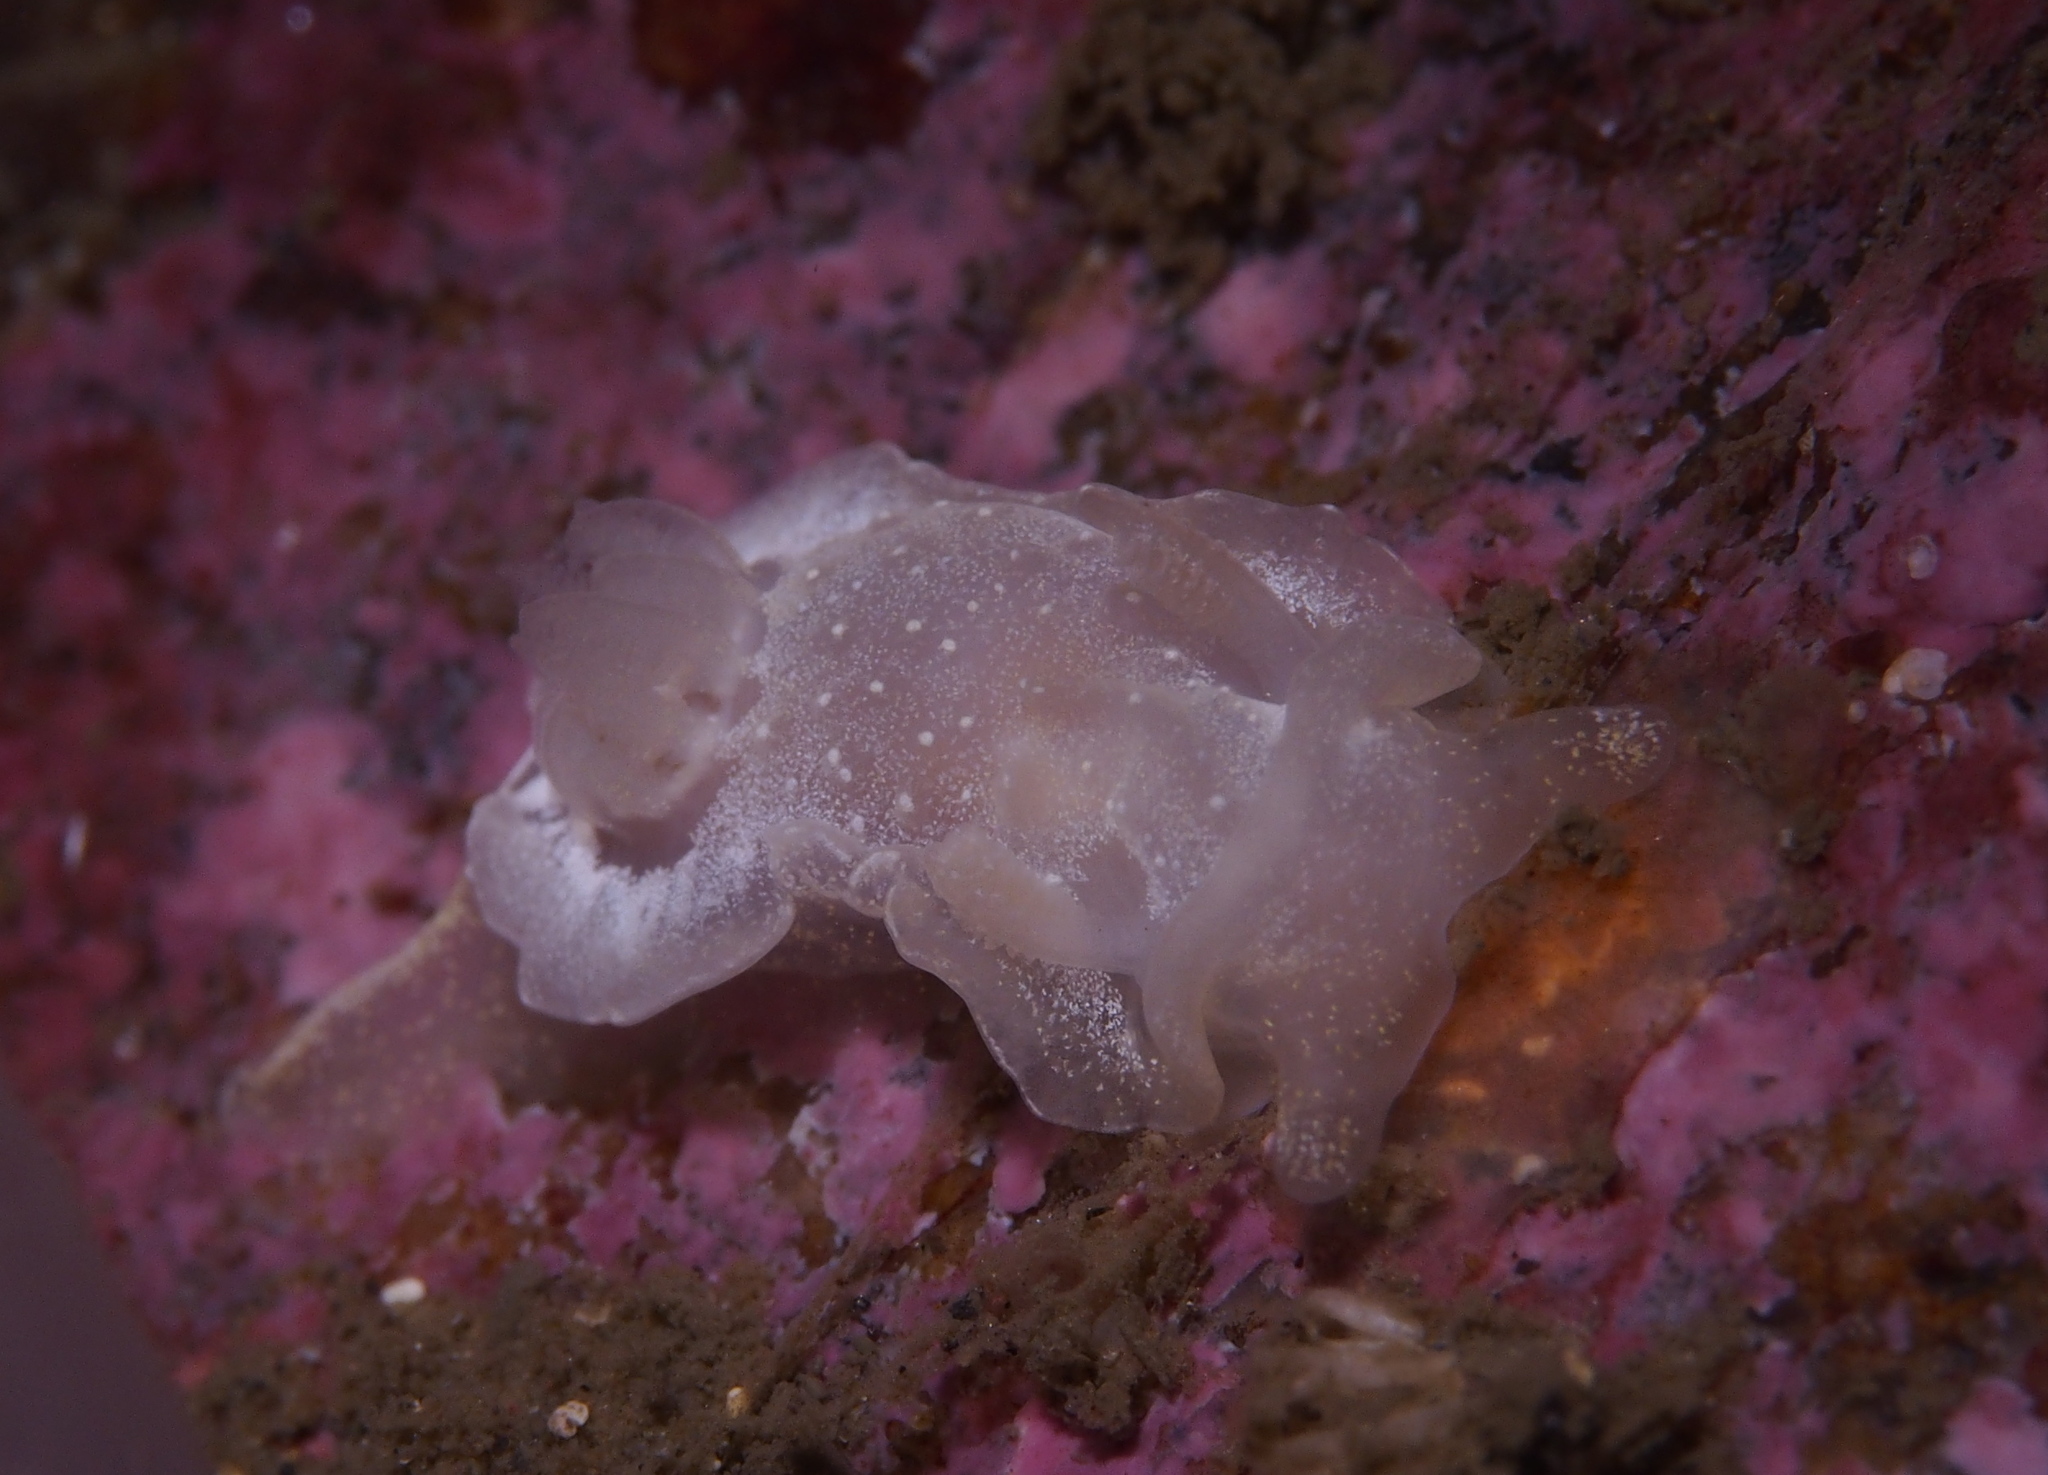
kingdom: Animalia
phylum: Mollusca
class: Gastropoda
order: Nudibranchia
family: Goniodorididae
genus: Okenia
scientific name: Okenia
